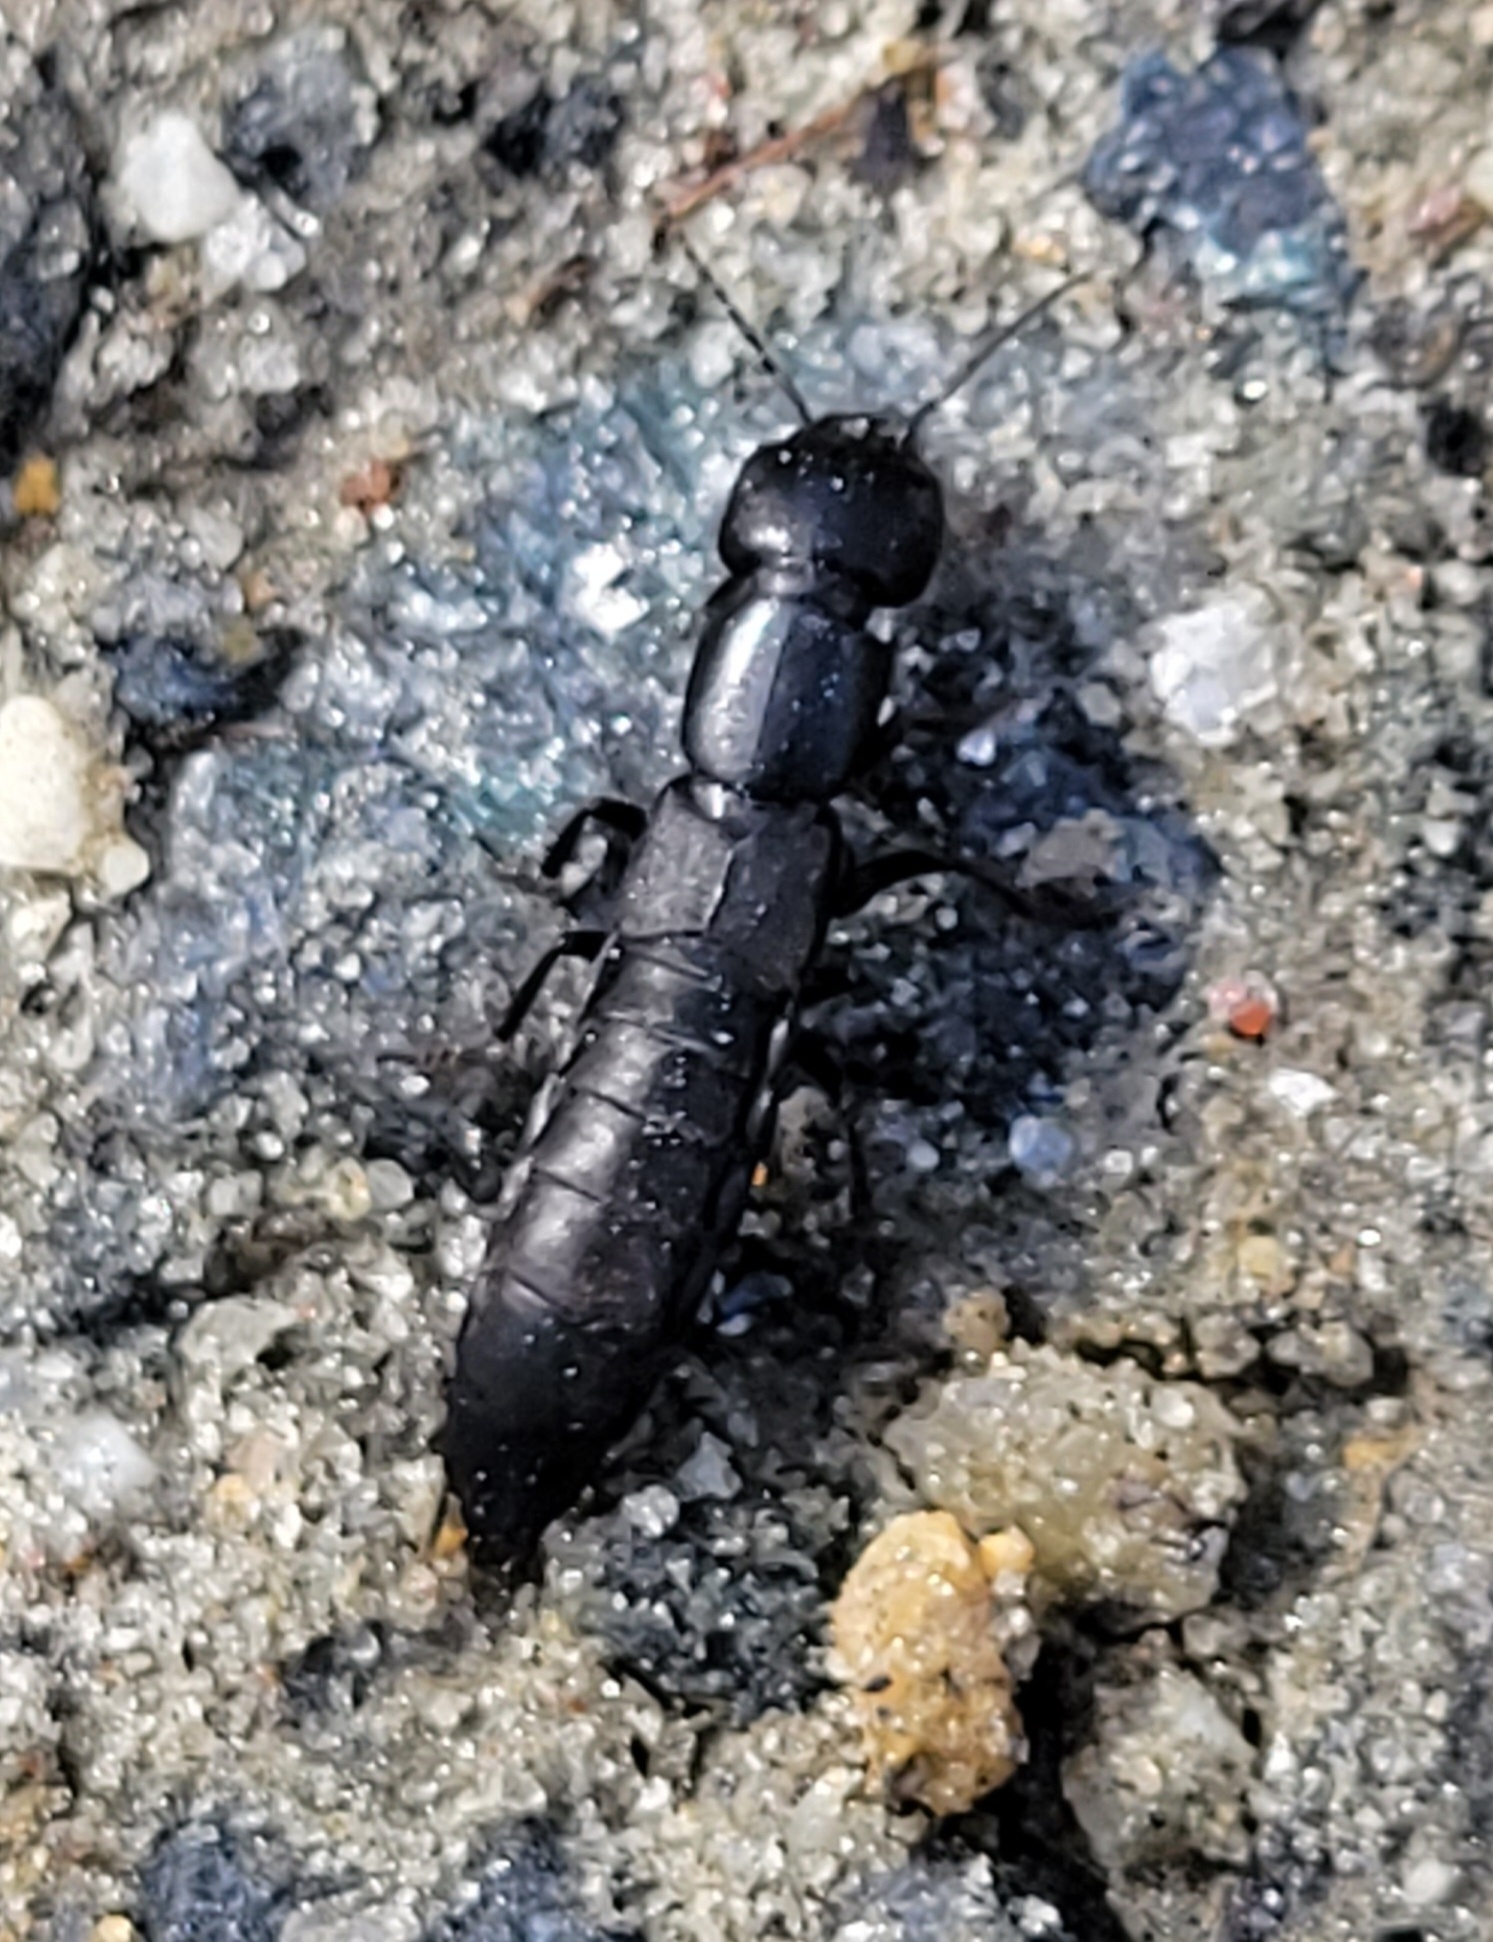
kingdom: Animalia
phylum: Arthropoda
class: Insecta
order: Coleoptera
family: Staphylinidae
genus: Ocypus
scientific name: Ocypus nitens
